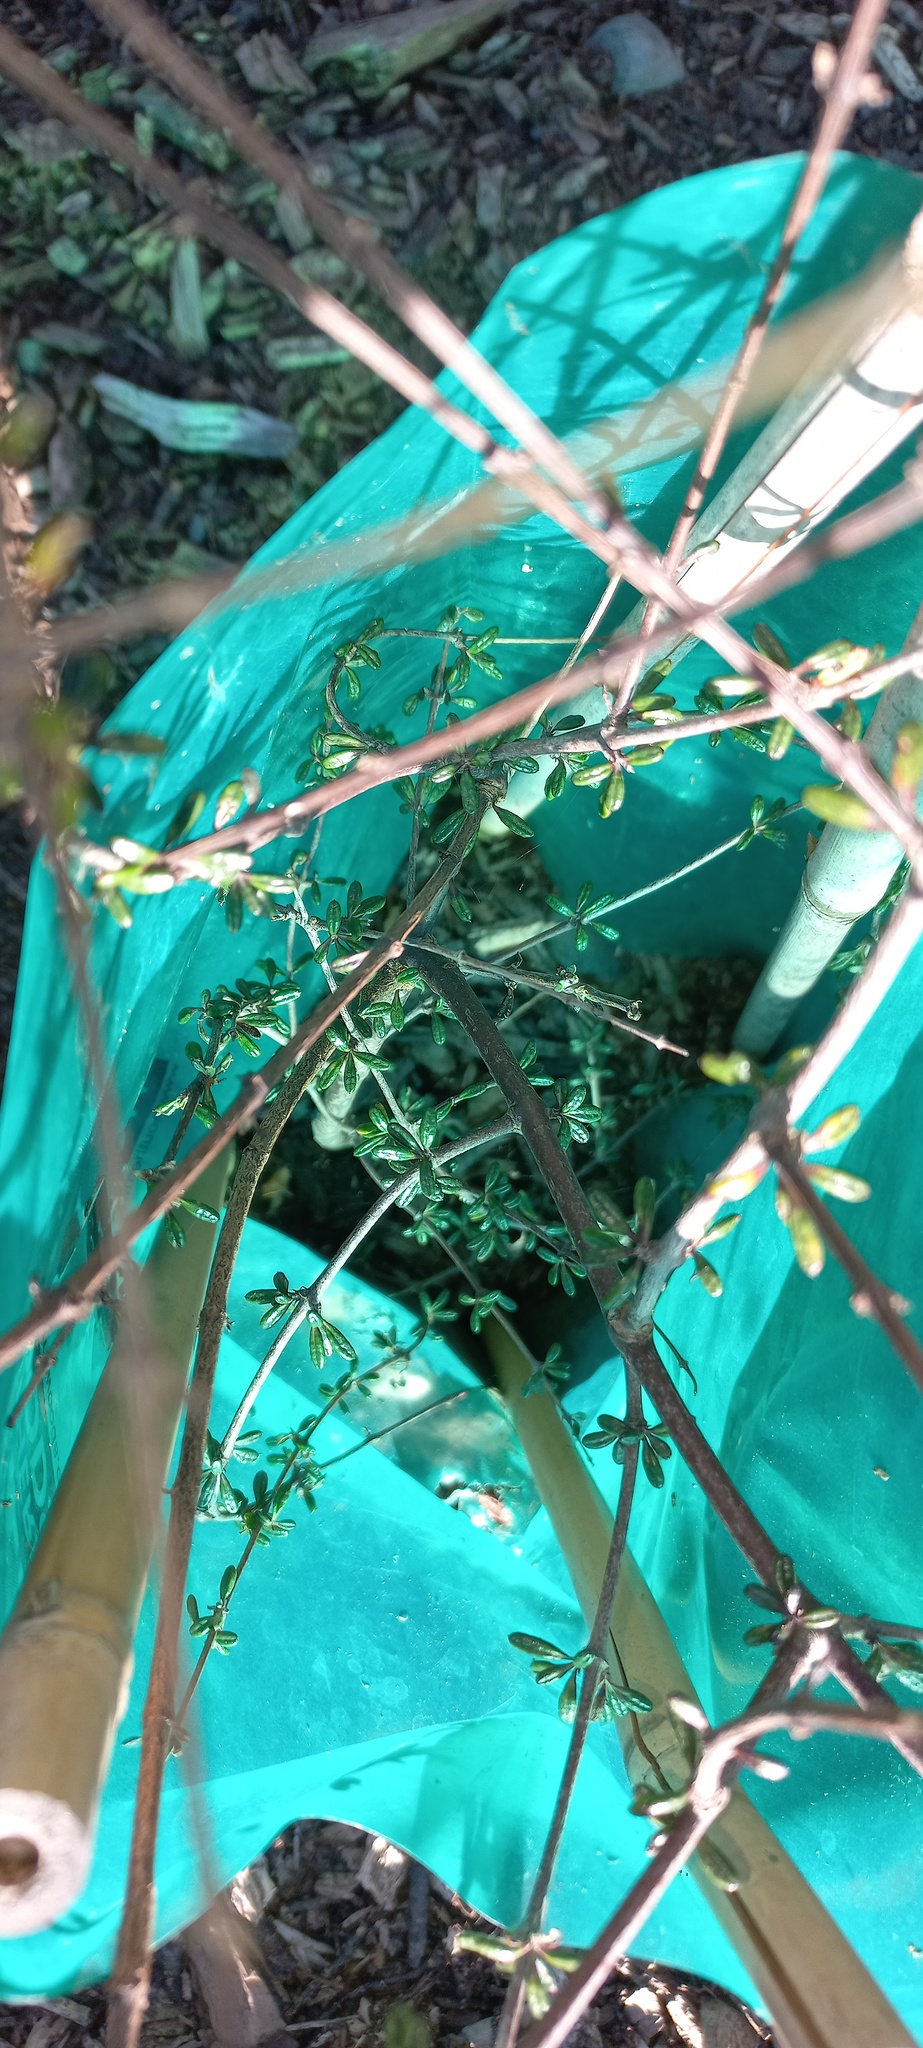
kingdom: Plantae
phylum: Tracheophyta
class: Magnoliopsida
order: Rosales
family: Rhamnaceae
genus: Discaria
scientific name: Discaria toumatou
